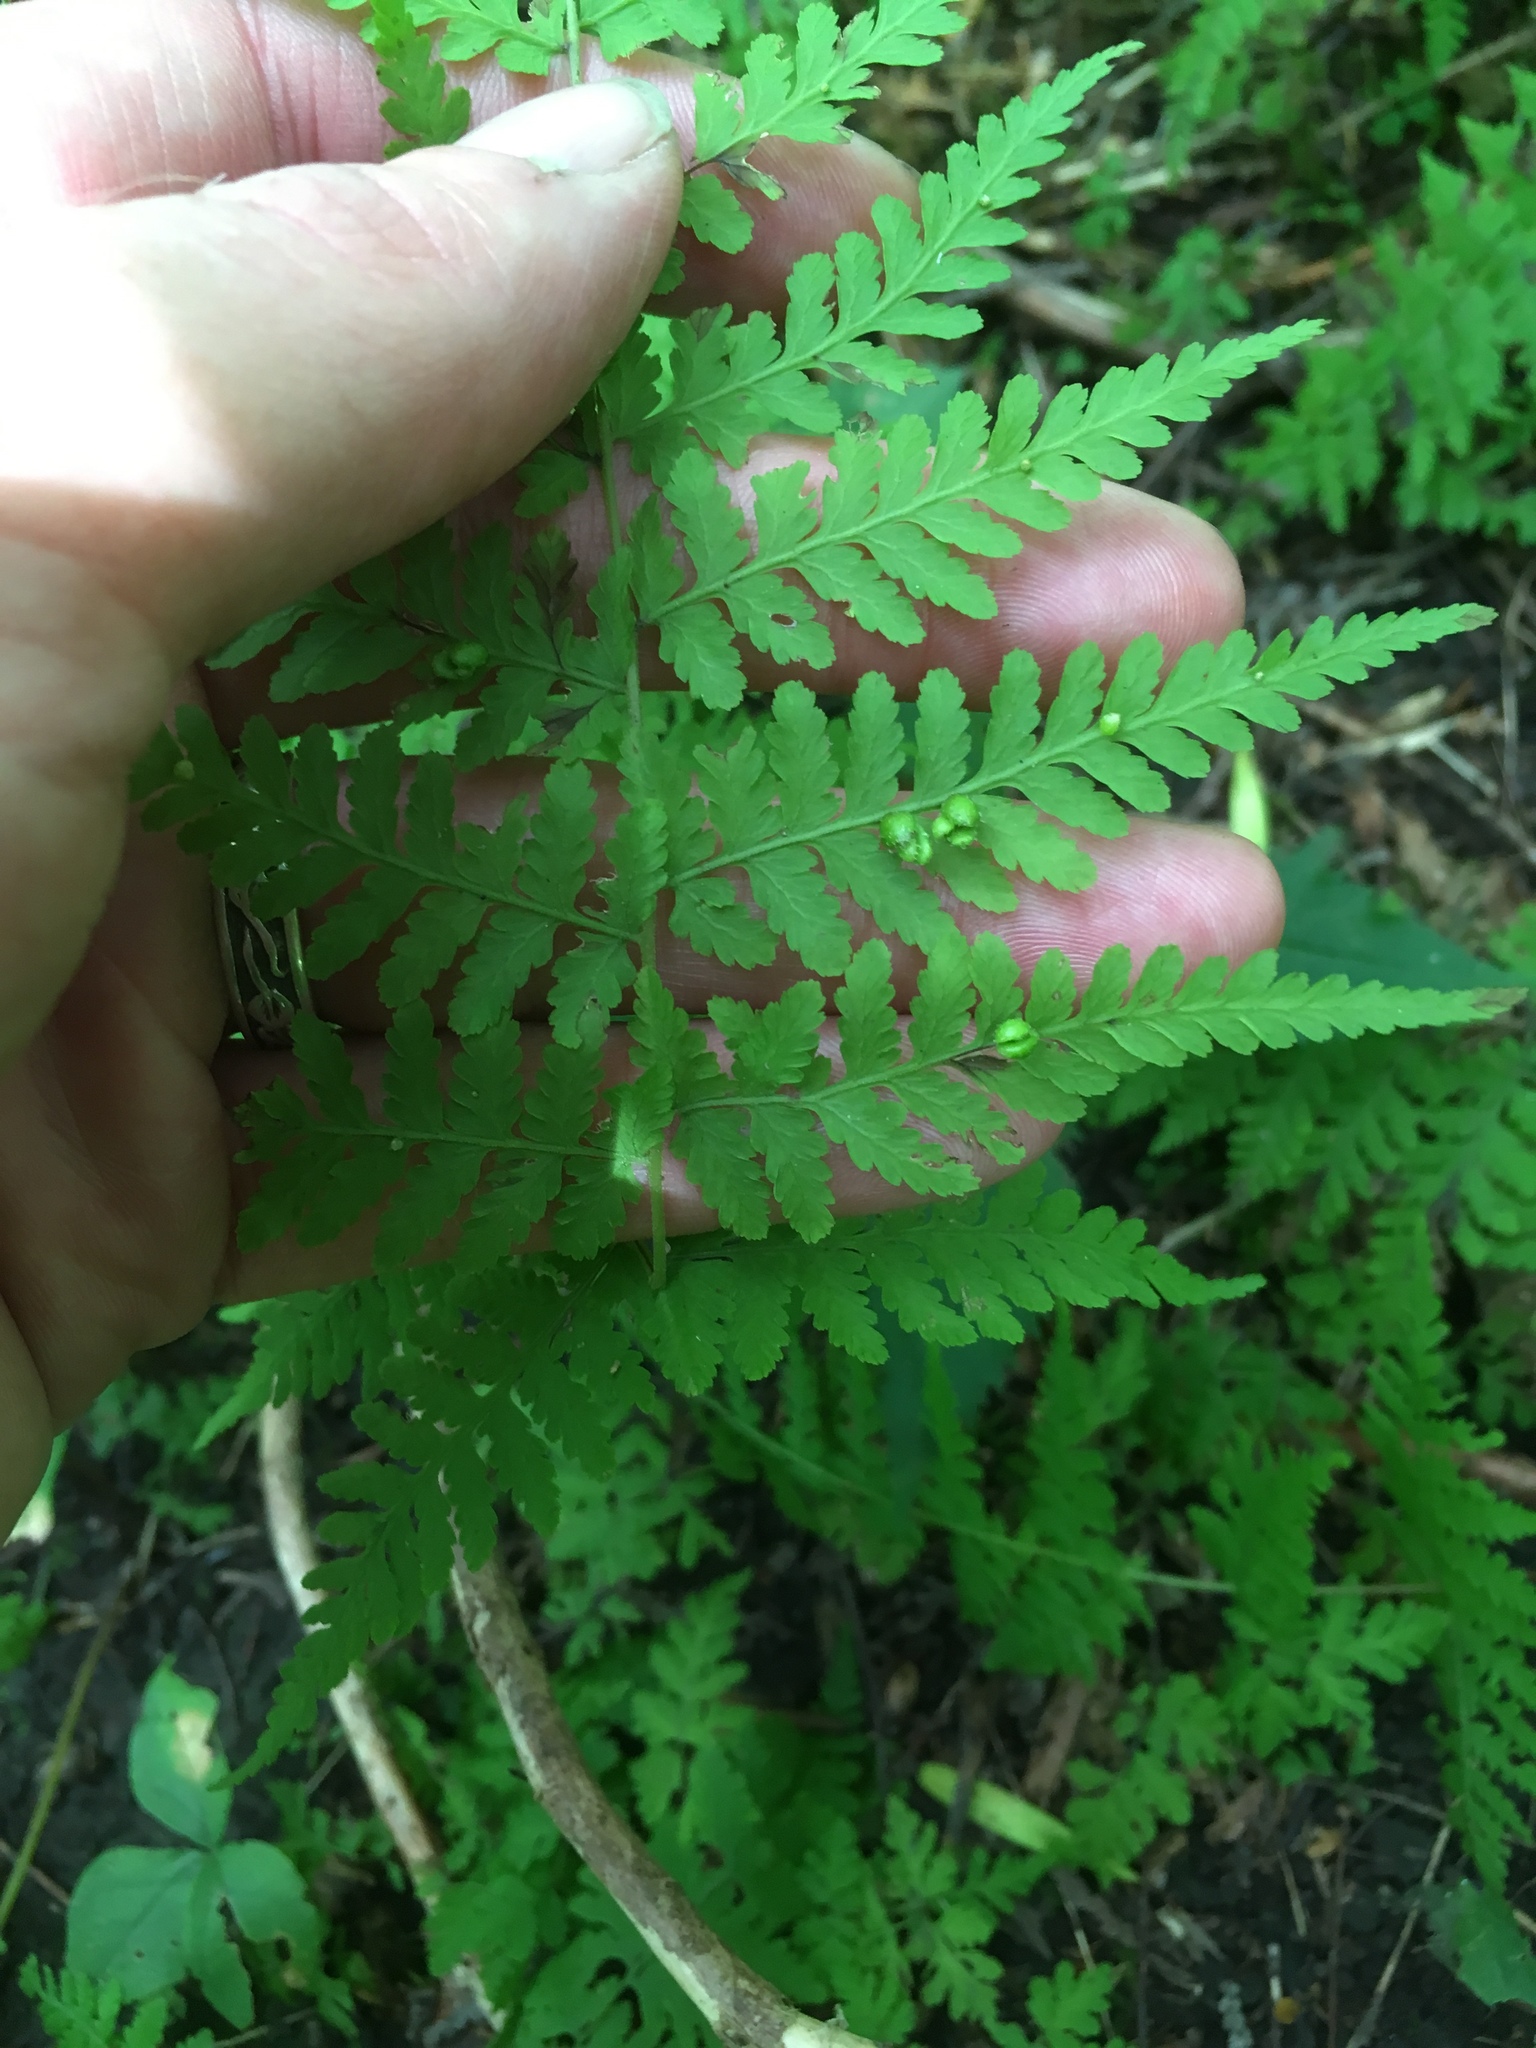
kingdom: Plantae
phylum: Tracheophyta
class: Polypodiopsida
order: Polypodiales
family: Cystopteridaceae
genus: Cystopteris
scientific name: Cystopteris bulbifera
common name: Bulblet bladder fern
